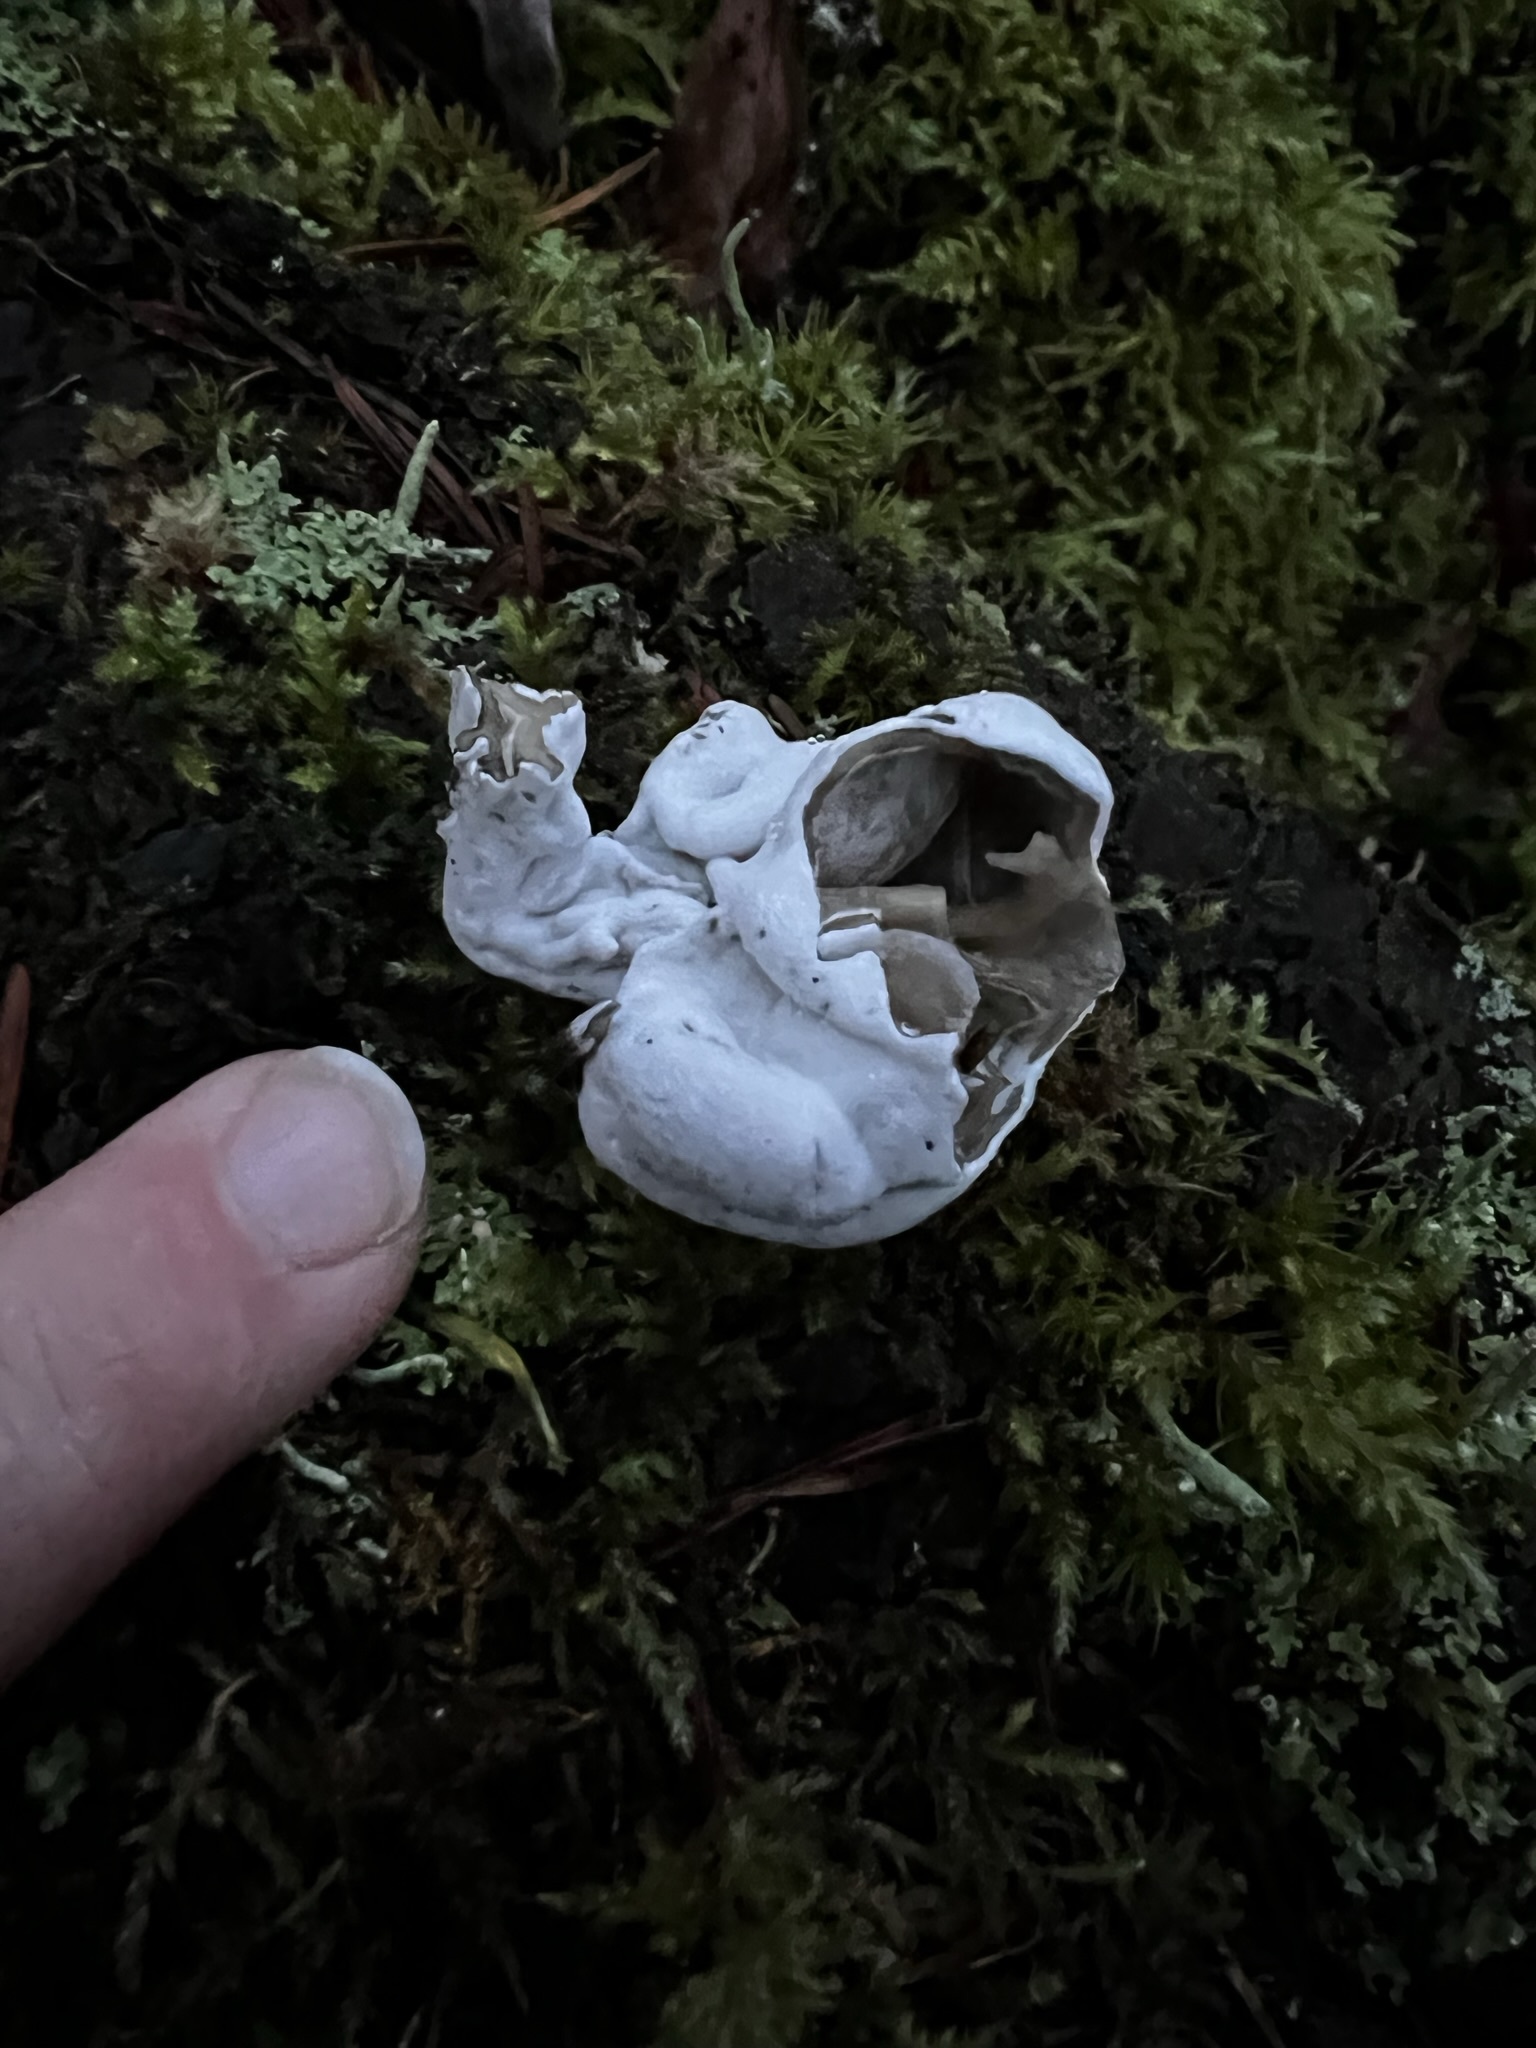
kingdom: Fungi
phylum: Ascomycota
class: Sordariomycetes
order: Hypocreales
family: Hypocreaceae
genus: Hypomyces
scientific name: Hypomyces cervinus
